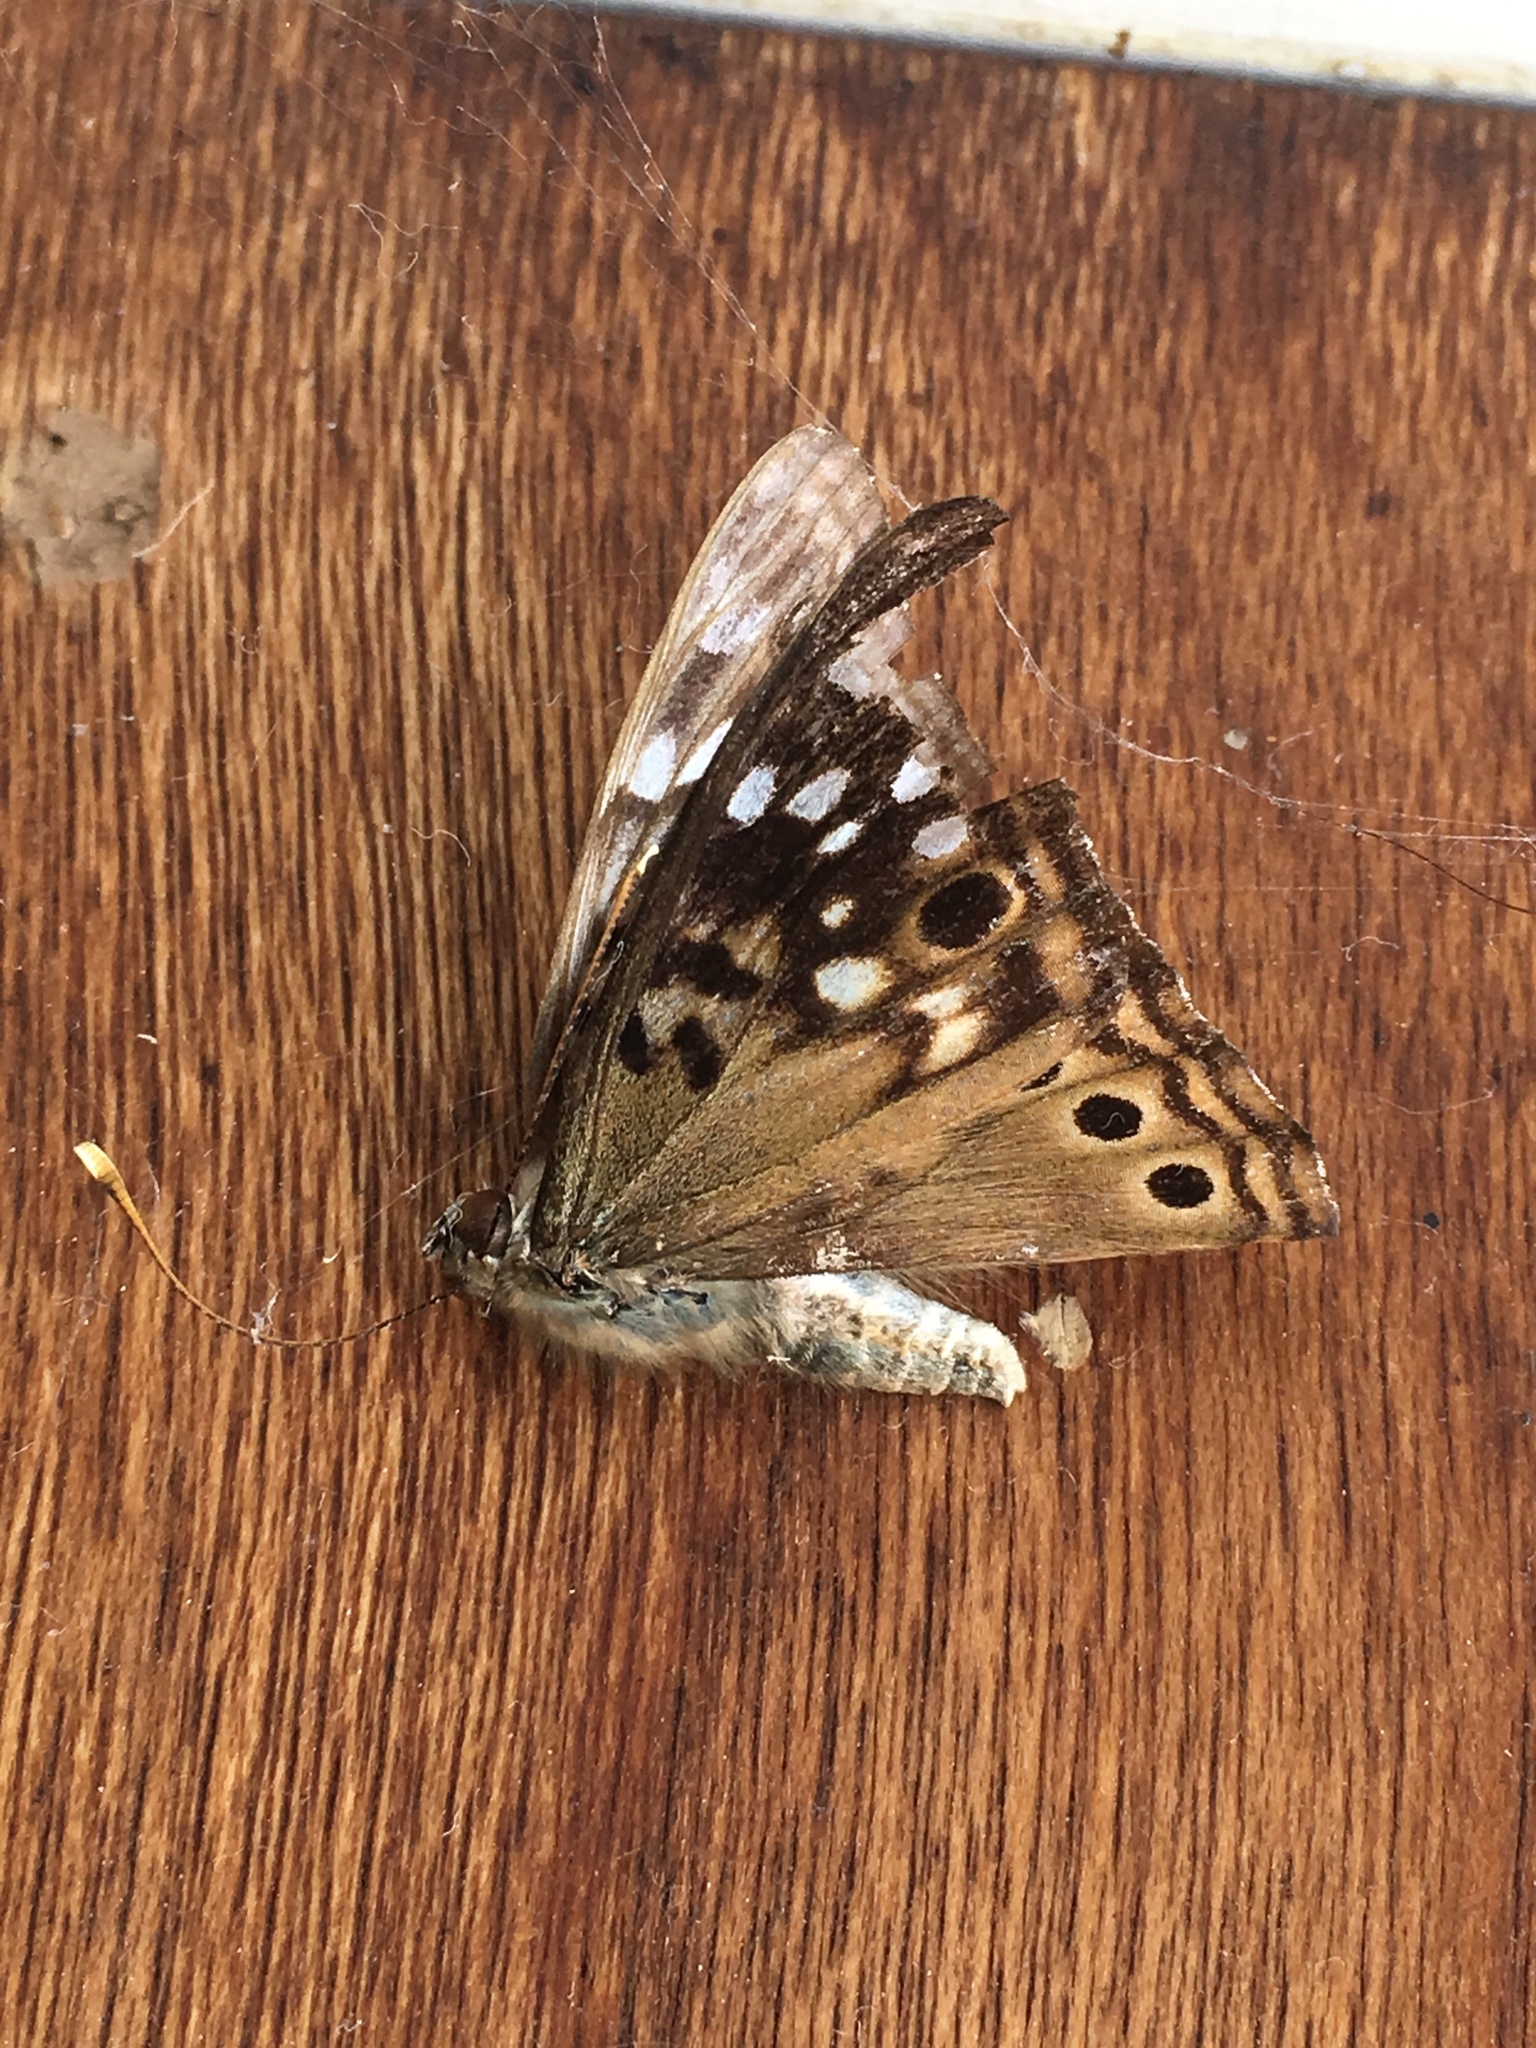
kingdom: Animalia
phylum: Arthropoda
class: Insecta
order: Lepidoptera
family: Nymphalidae
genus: Asterocampa
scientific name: Asterocampa celtis
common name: Hackberry emperor
